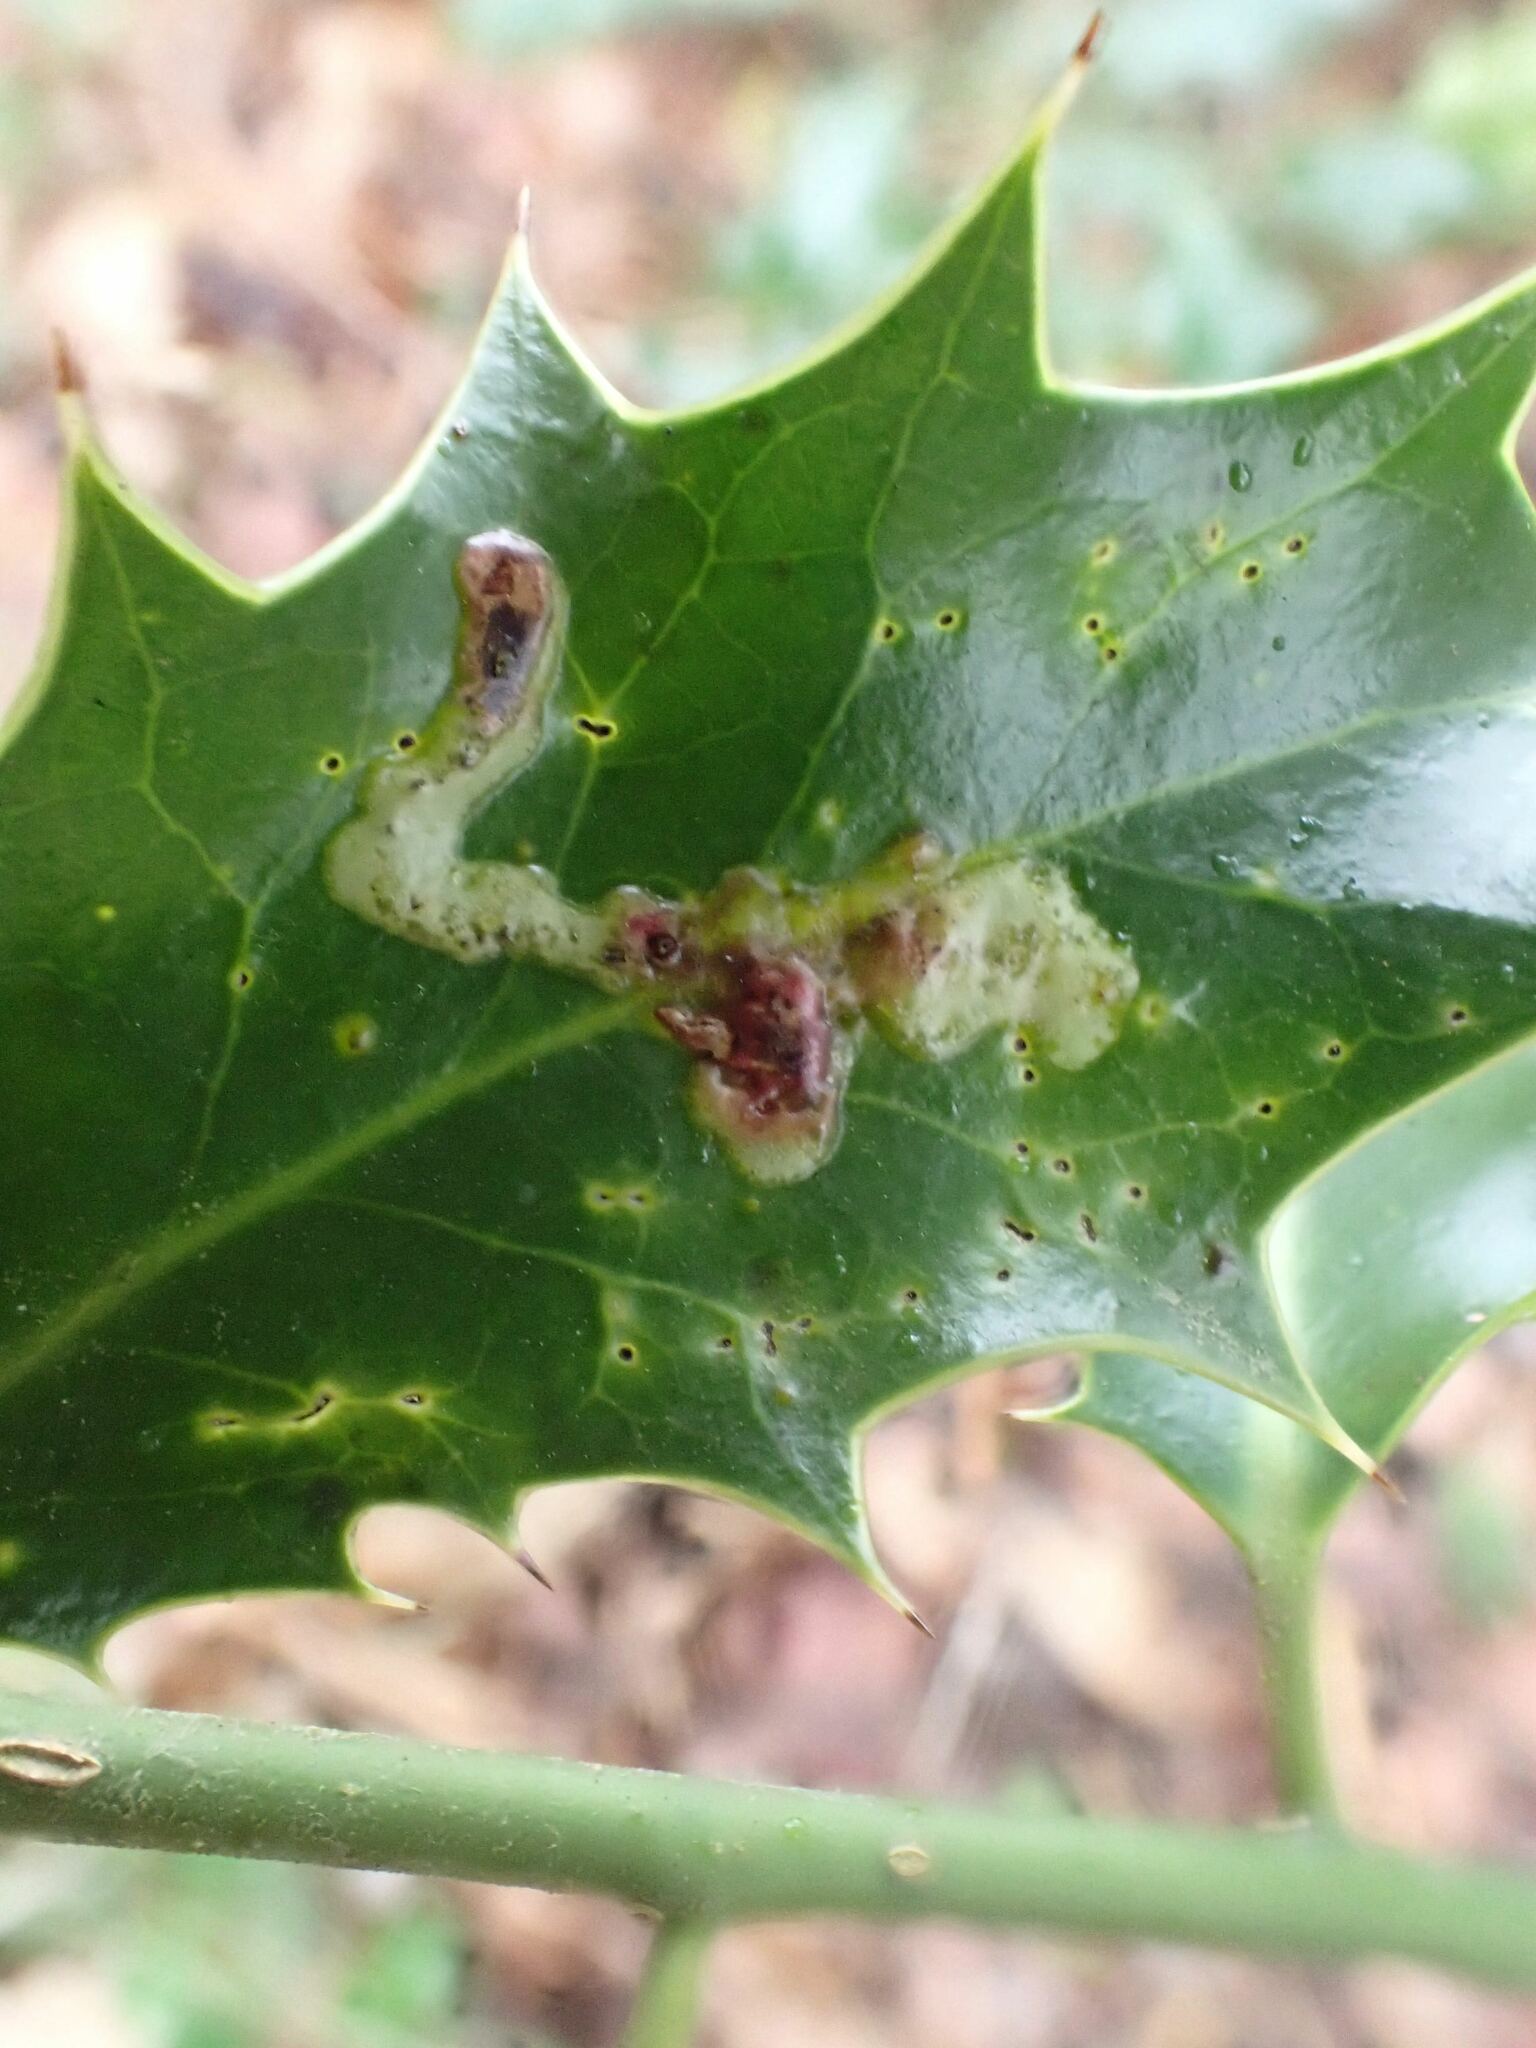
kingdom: Animalia
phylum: Arthropoda
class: Insecta
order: Diptera
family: Agromyzidae
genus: Phytomyza
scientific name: Phytomyza ilicis
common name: Holly leafminer
